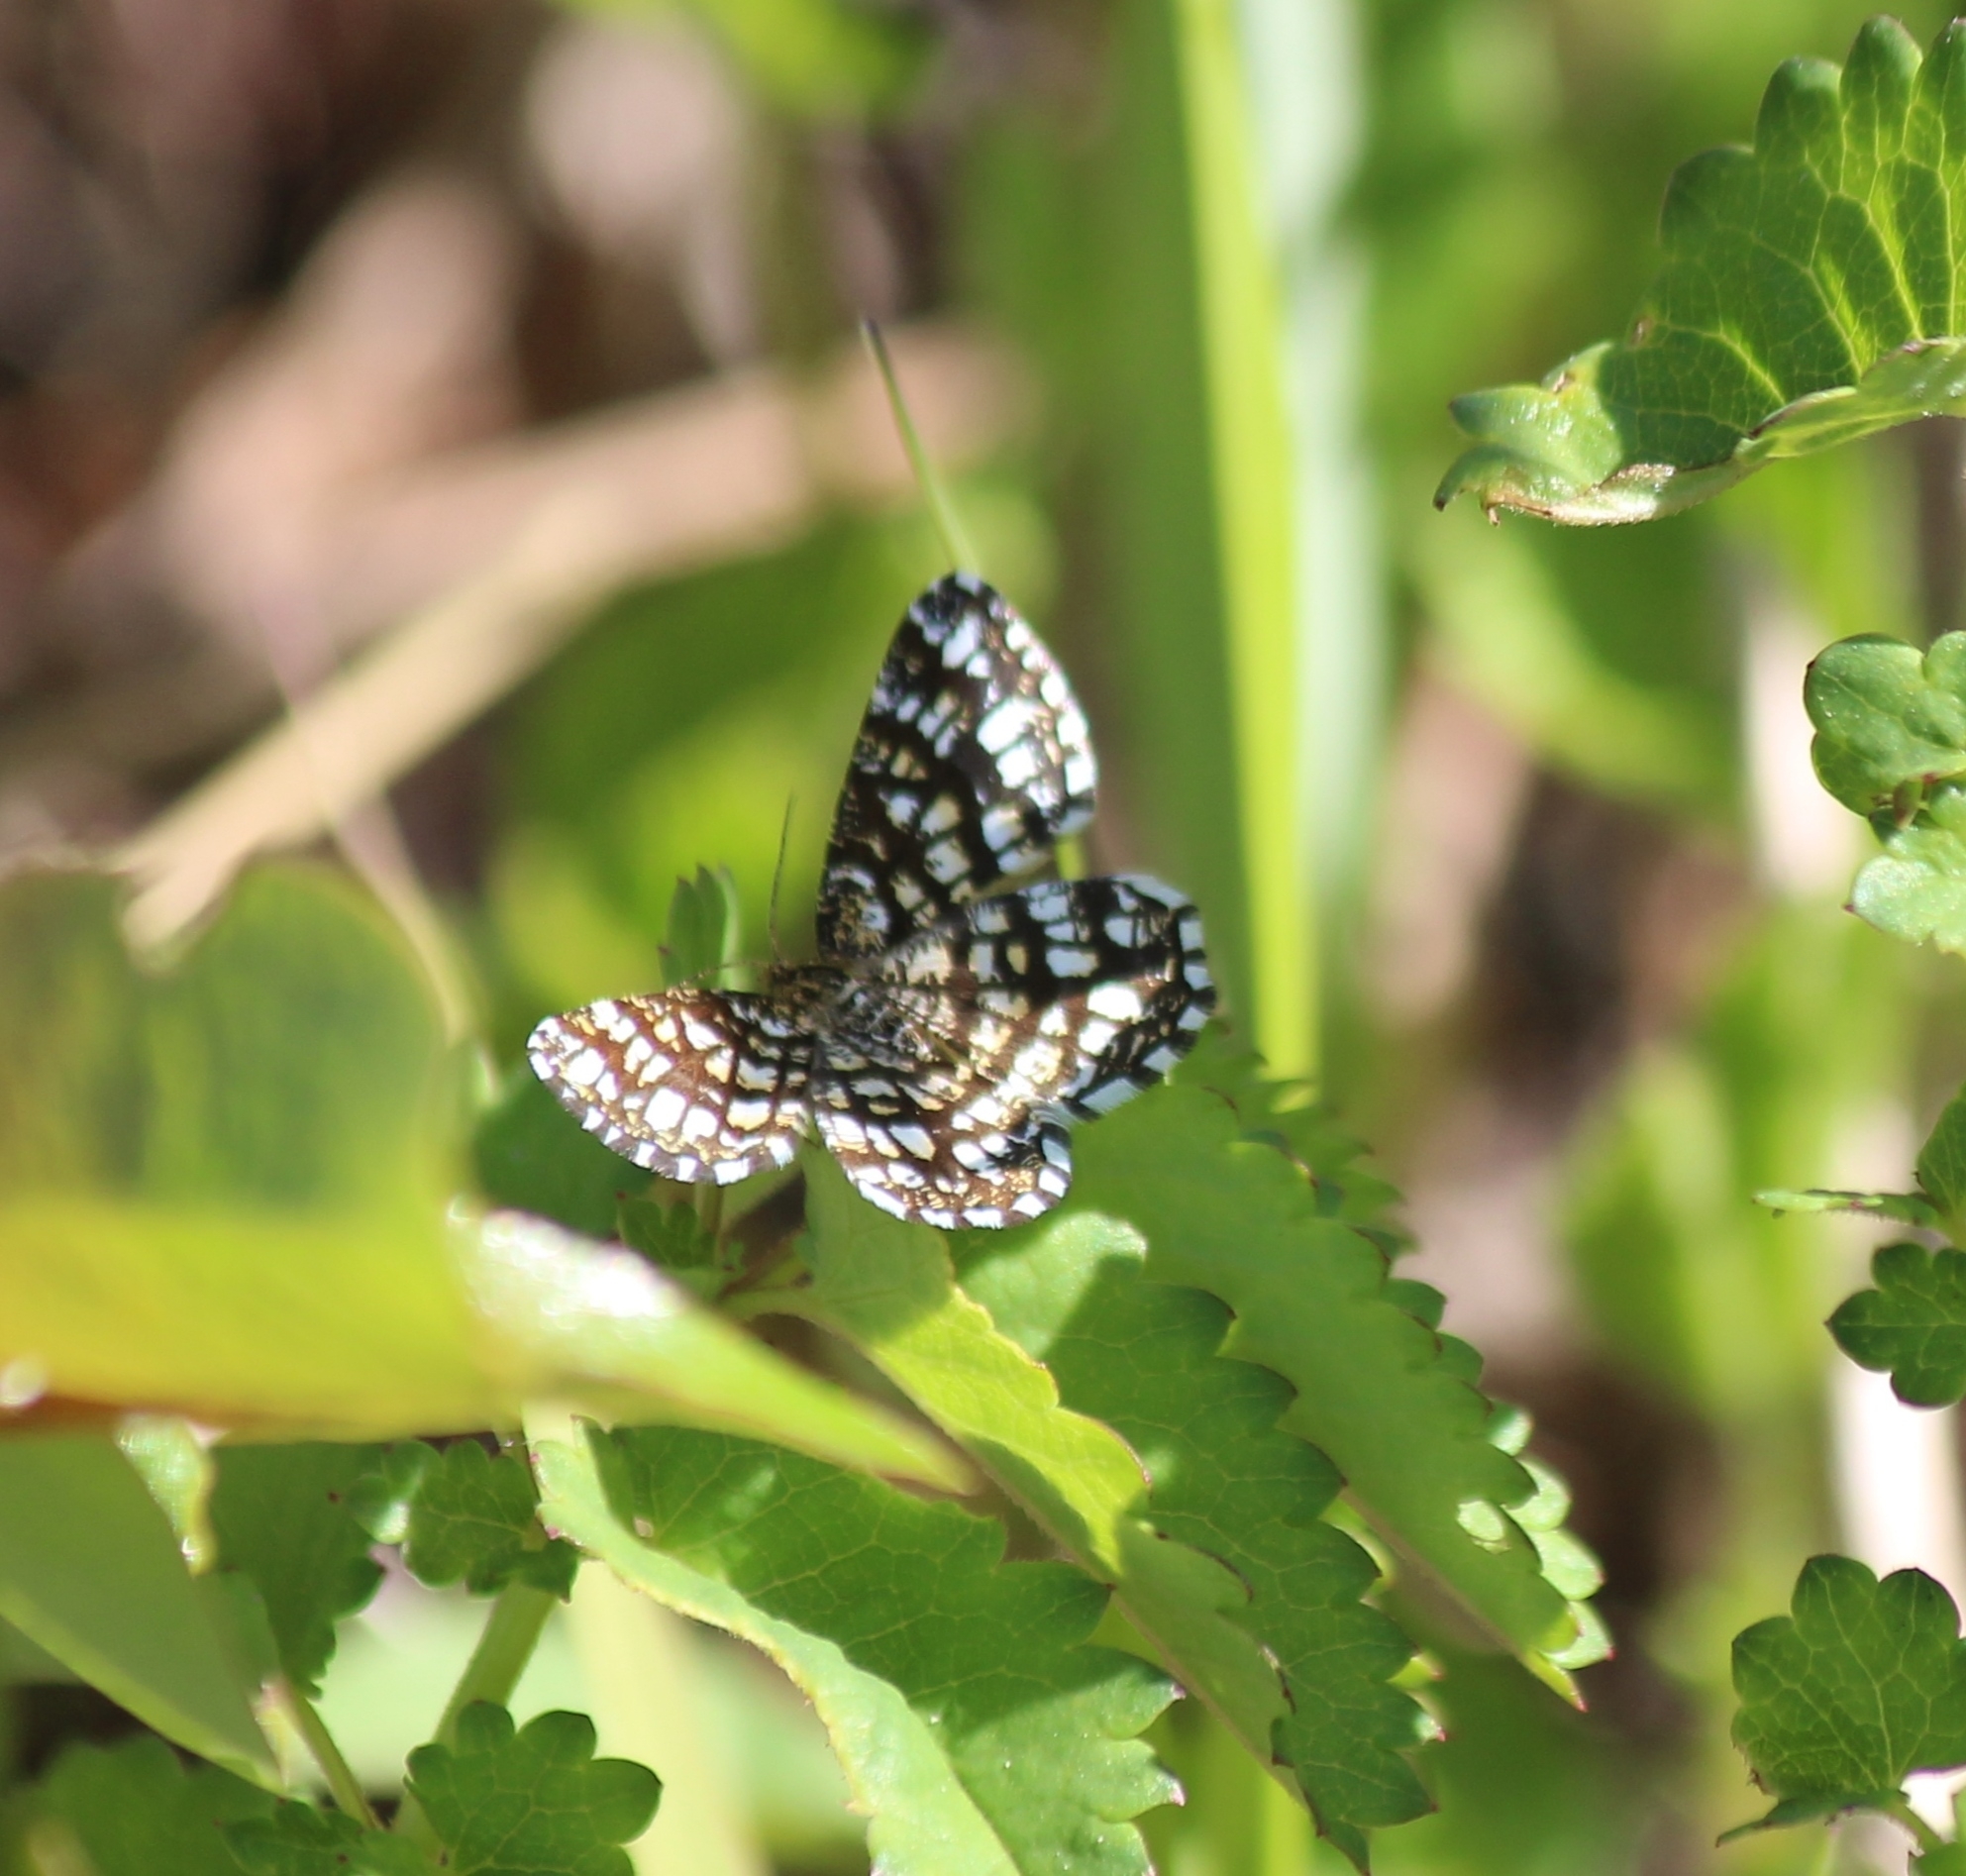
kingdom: Animalia
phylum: Arthropoda
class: Insecta
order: Lepidoptera
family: Geometridae
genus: Chiasmia
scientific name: Chiasmia clathrata
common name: Latticed heath
